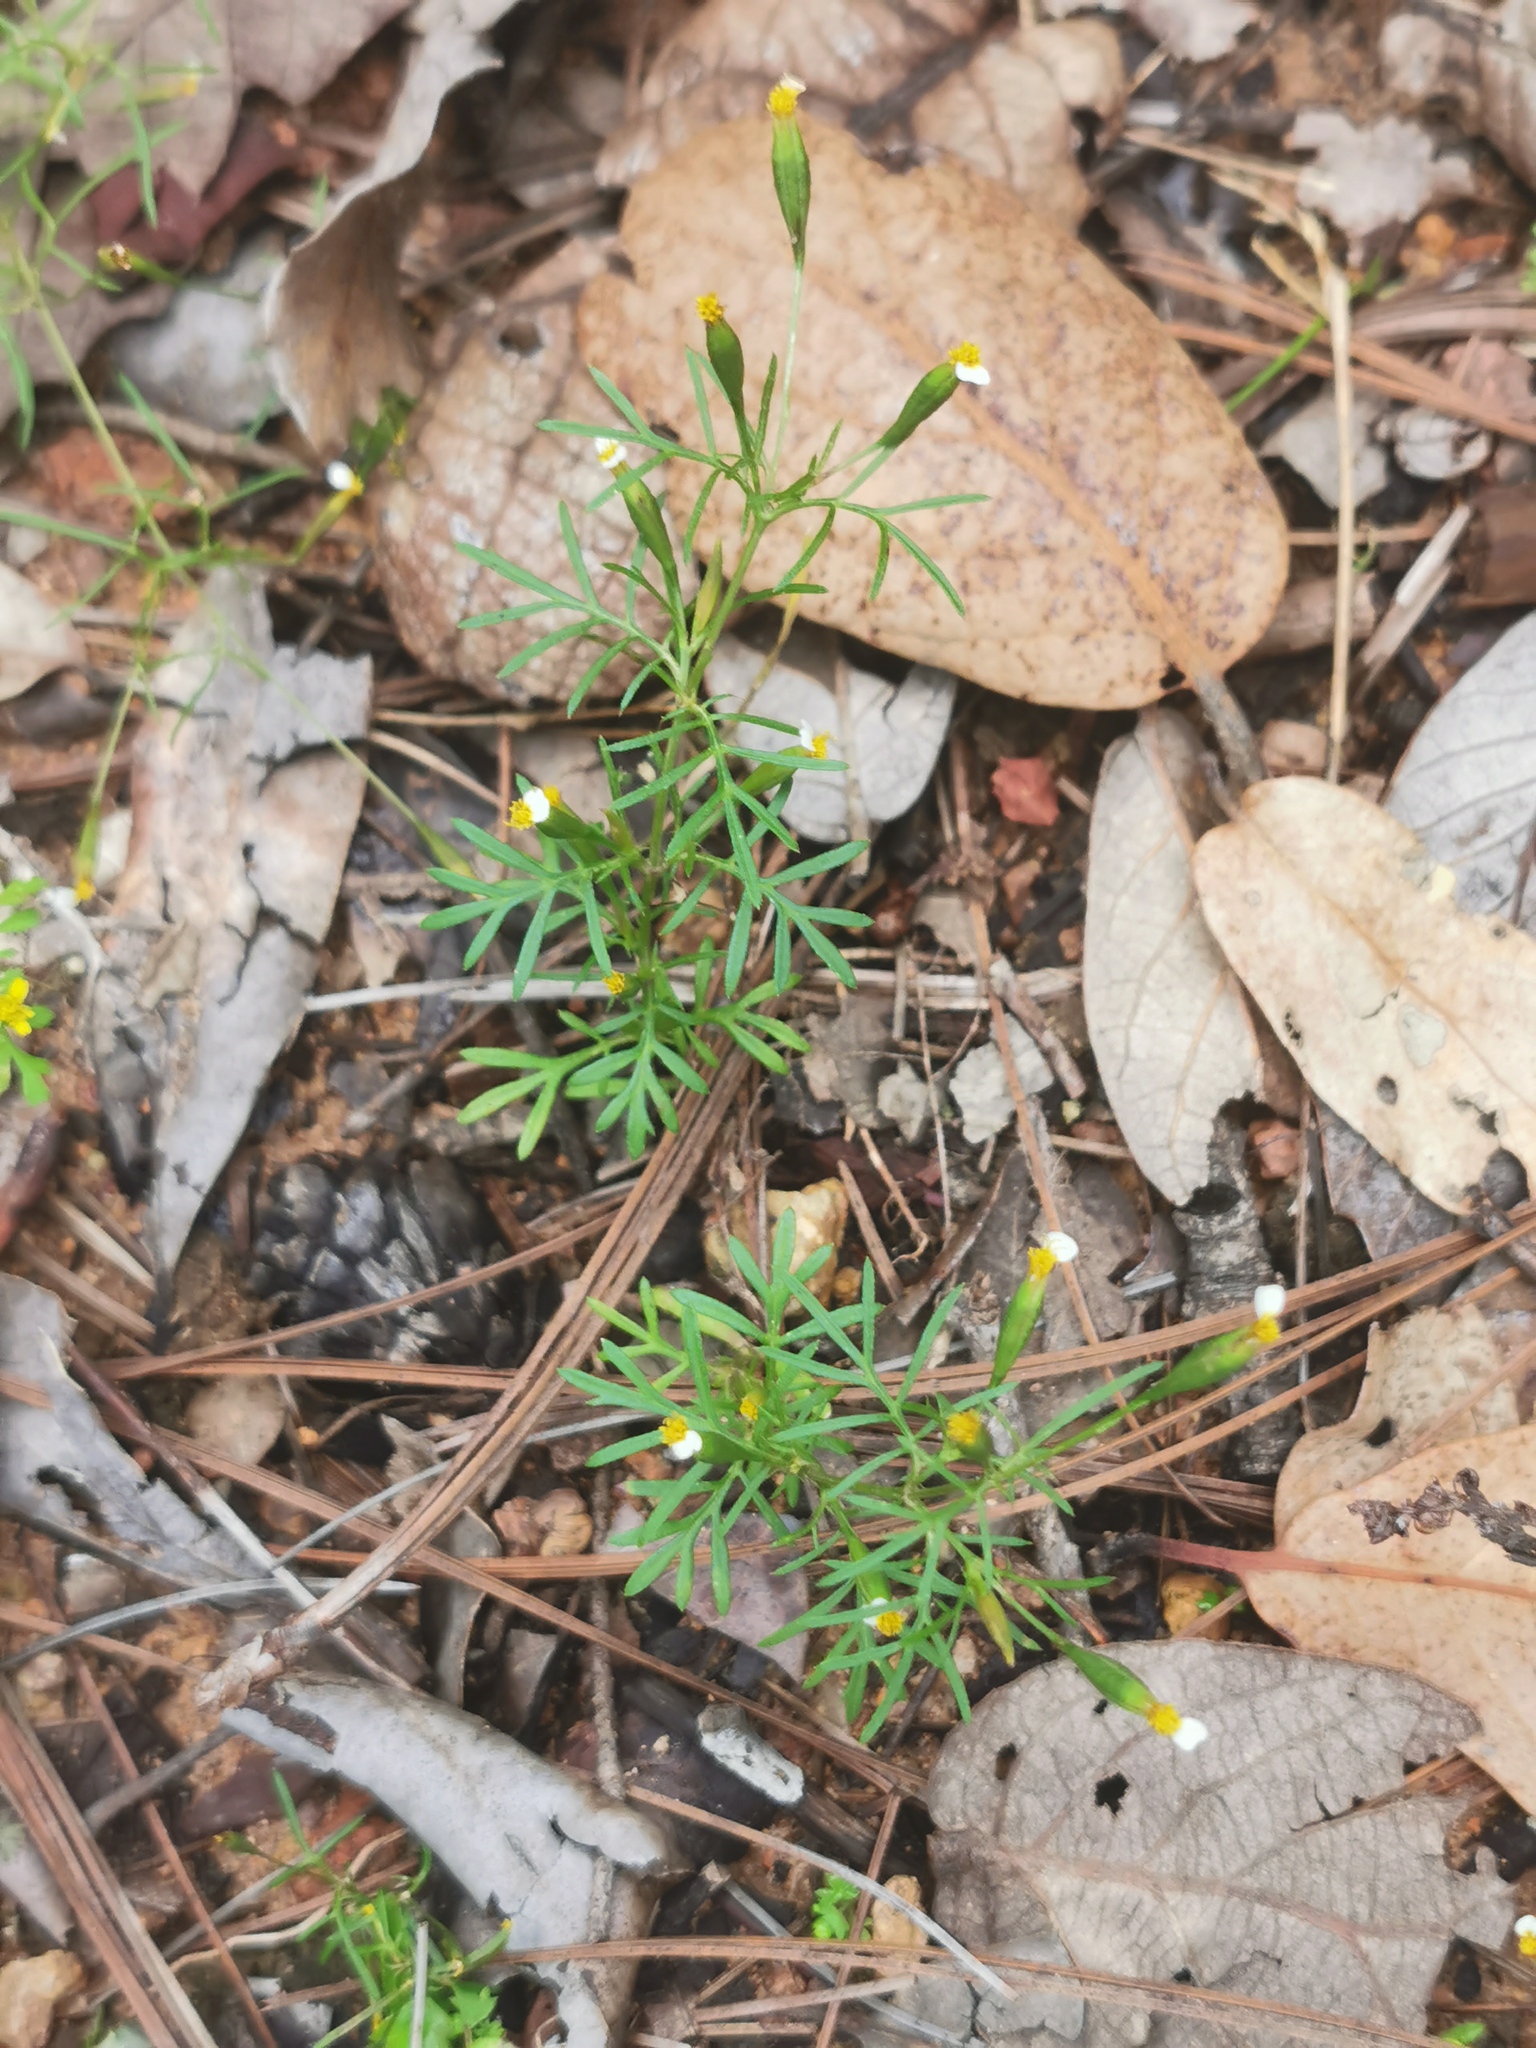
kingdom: Plantae
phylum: Tracheophyta
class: Magnoliopsida
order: Asterales
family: Asteraceae
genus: Tagetes
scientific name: Tagetes filifolia
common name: Lesser marigold
